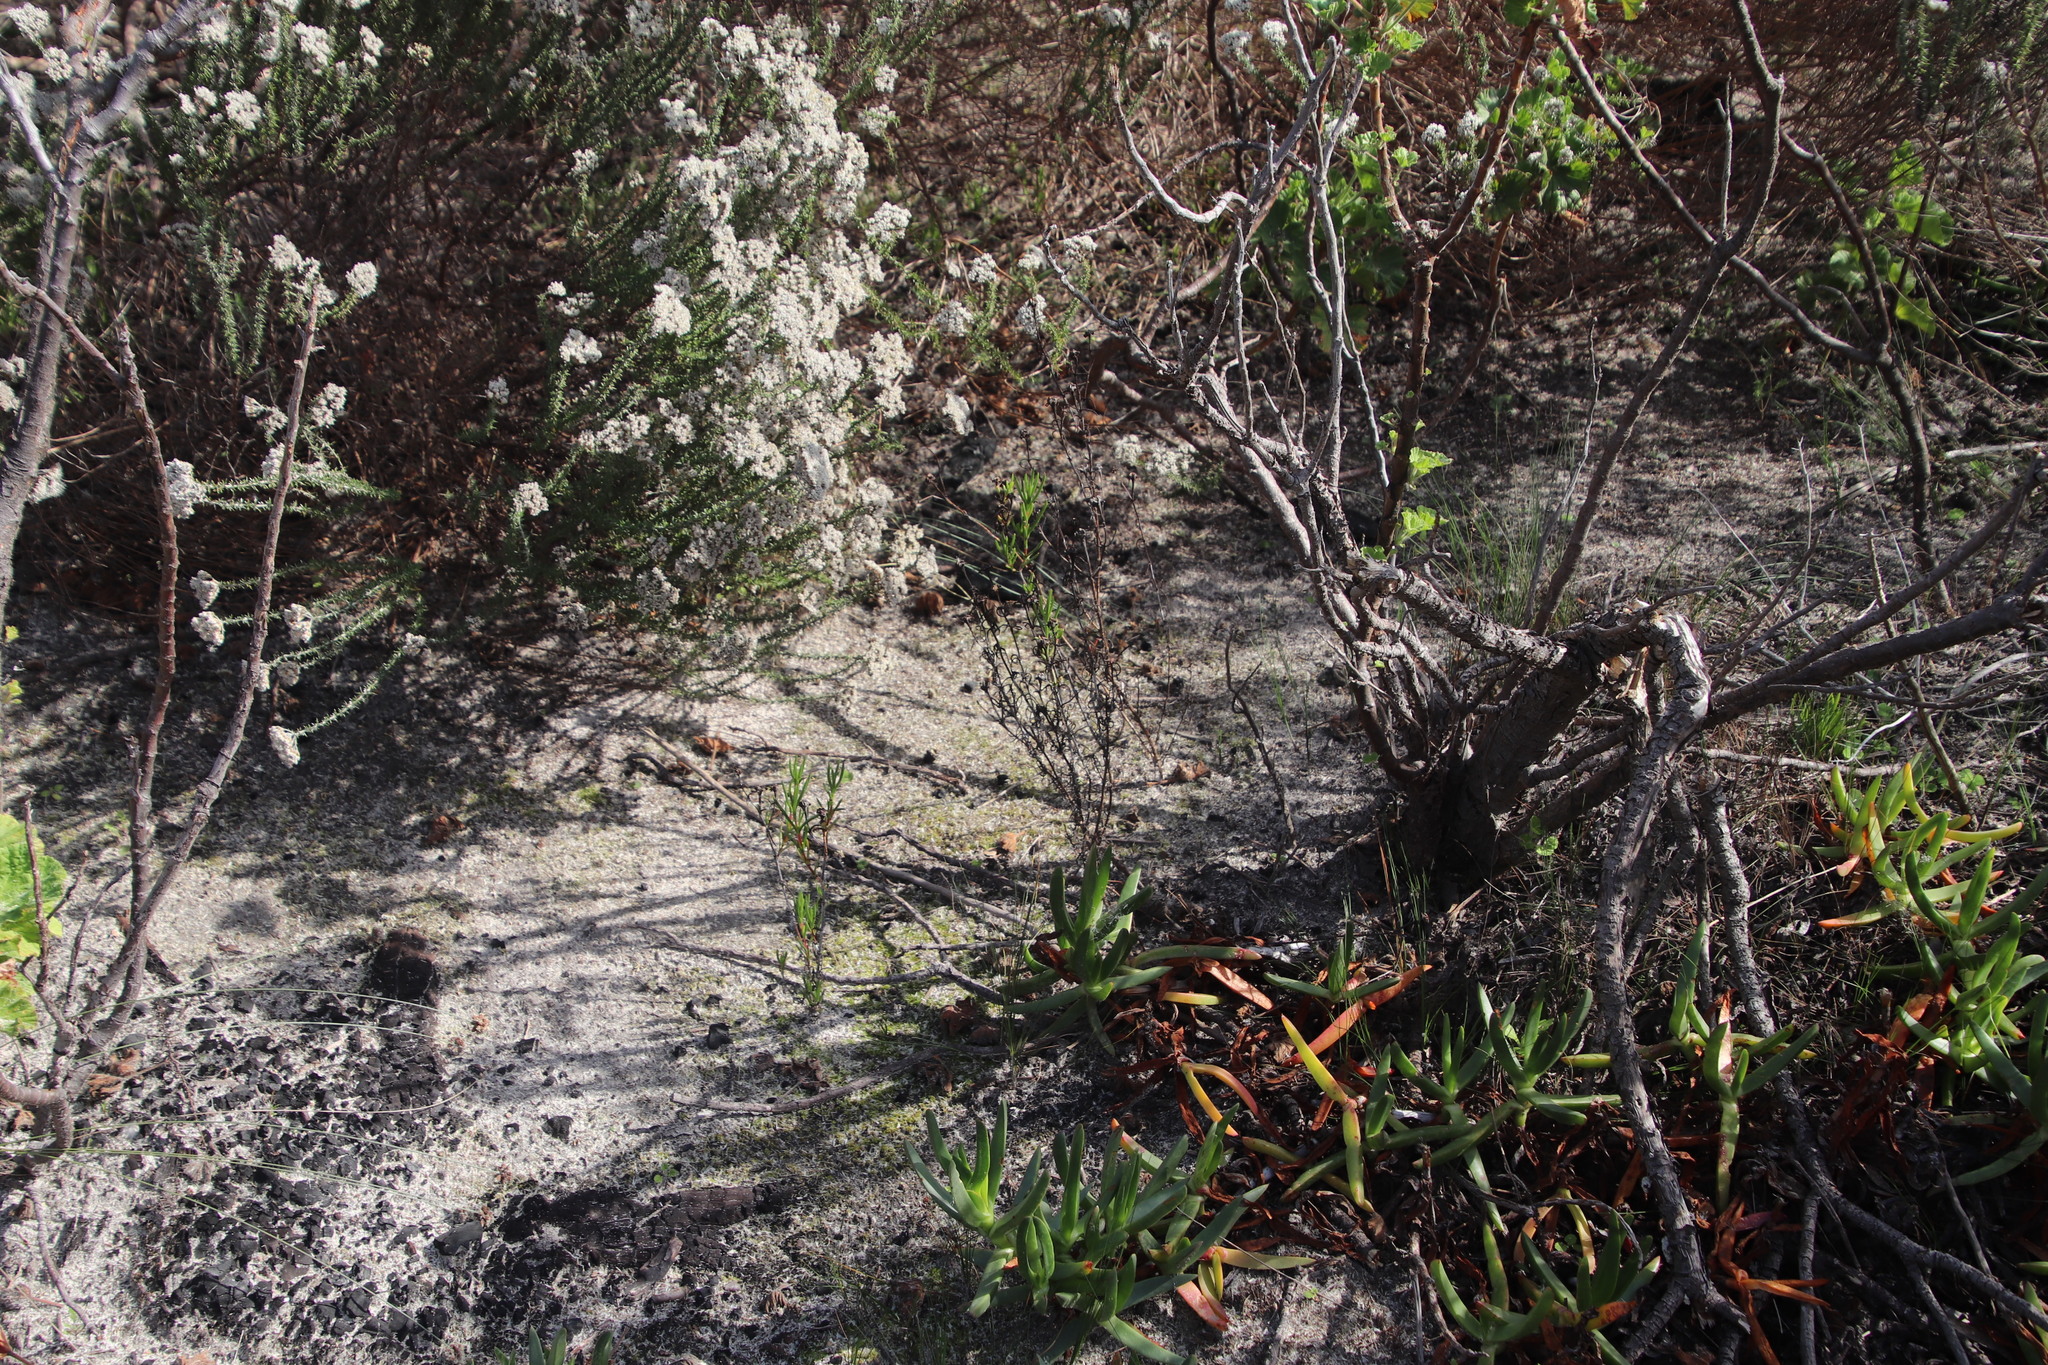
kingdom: Plantae
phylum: Tracheophyta
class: Magnoliopsida
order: Caryophyllales
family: Aizoaceae
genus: Lampranthus
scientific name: Lampranthus bicolor
